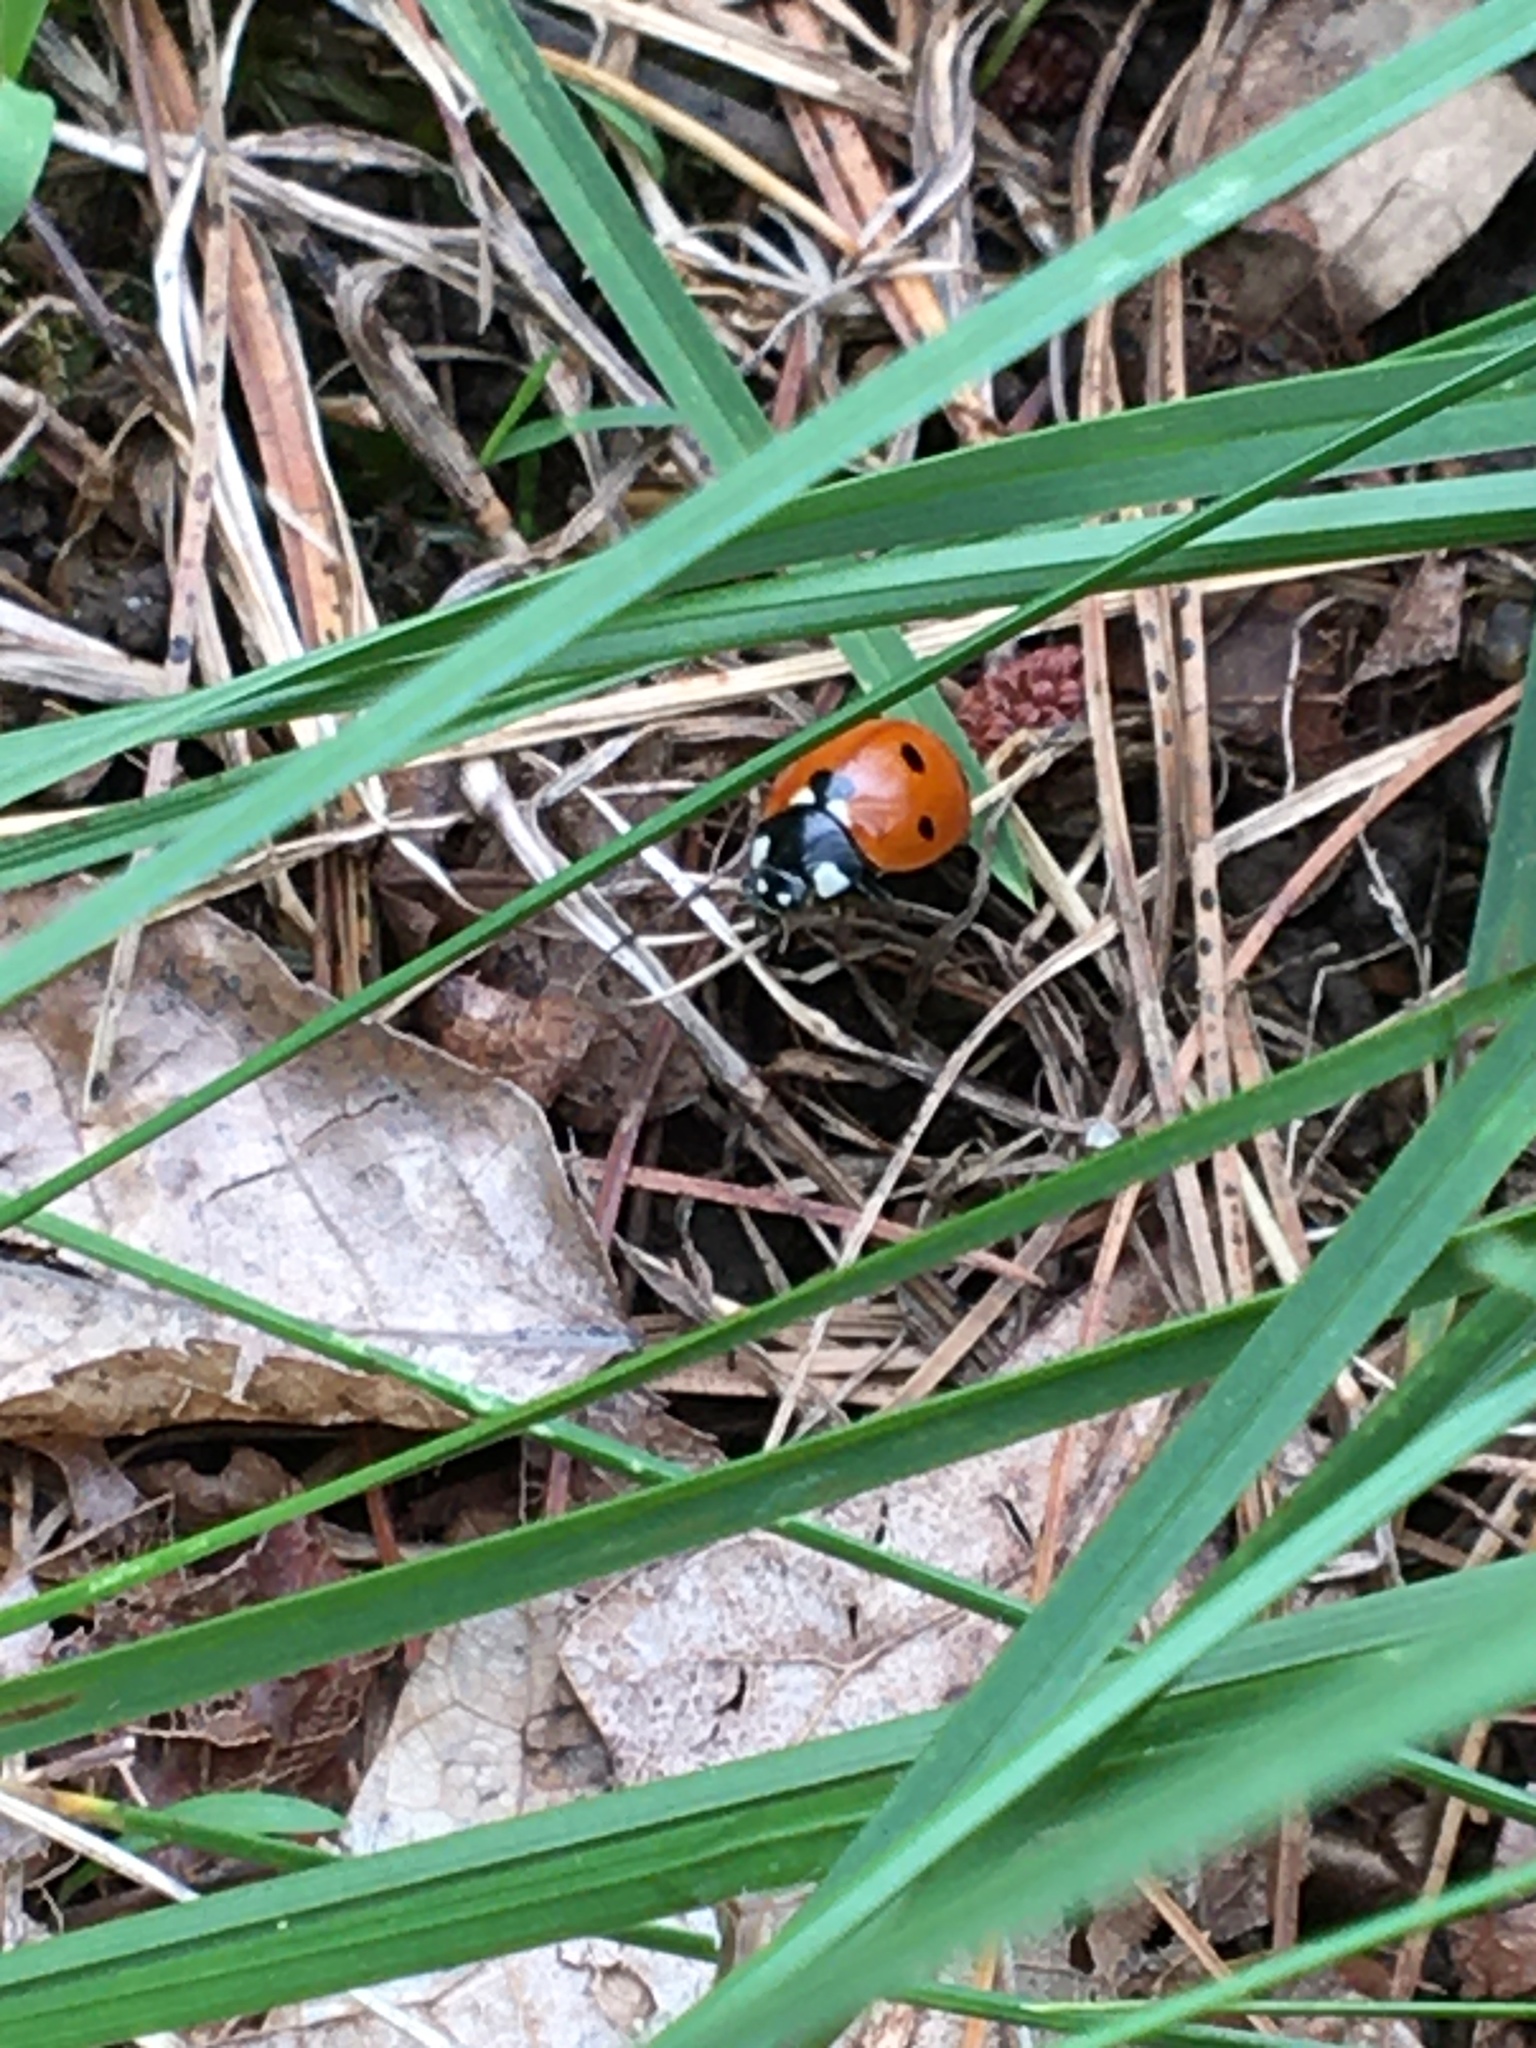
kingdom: Animalia
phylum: Arthropoda
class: Insecta
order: Coleoptera
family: Coccinellidae
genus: Coccinella
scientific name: Coccinella septempunctata
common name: Sevenspotted lady beetle
